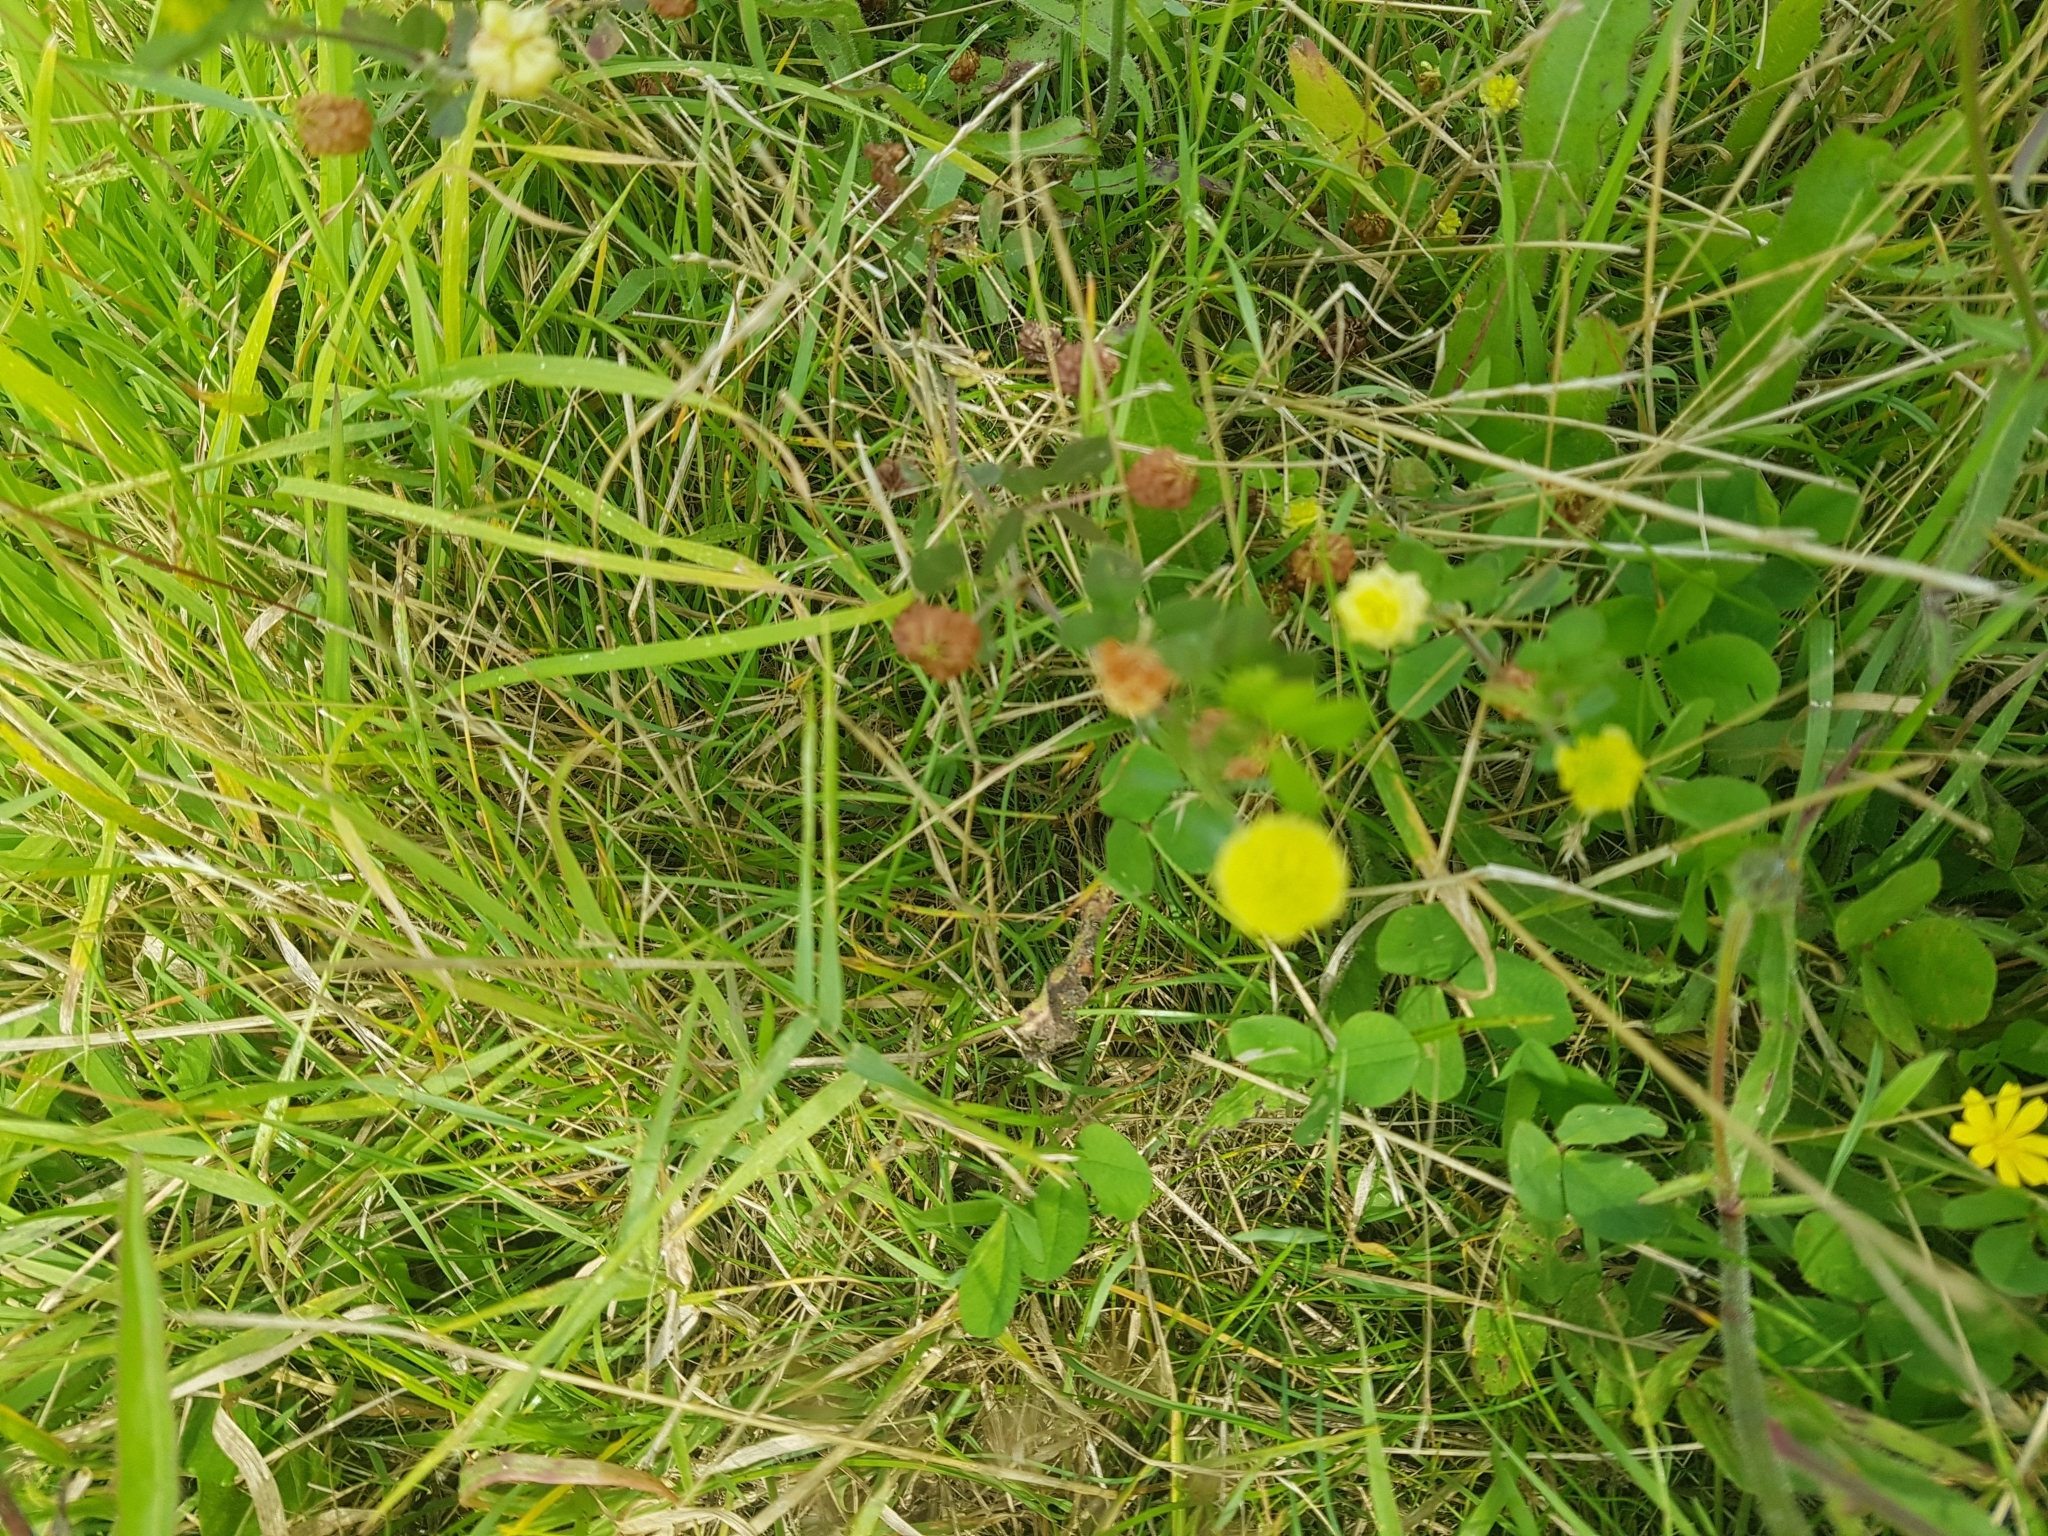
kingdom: Plantae
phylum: Tracheophyta
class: Magnoliopsida
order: Fabales
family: Fabaceae
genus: Trifolium
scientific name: Trifolium campestre
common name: Field clover
